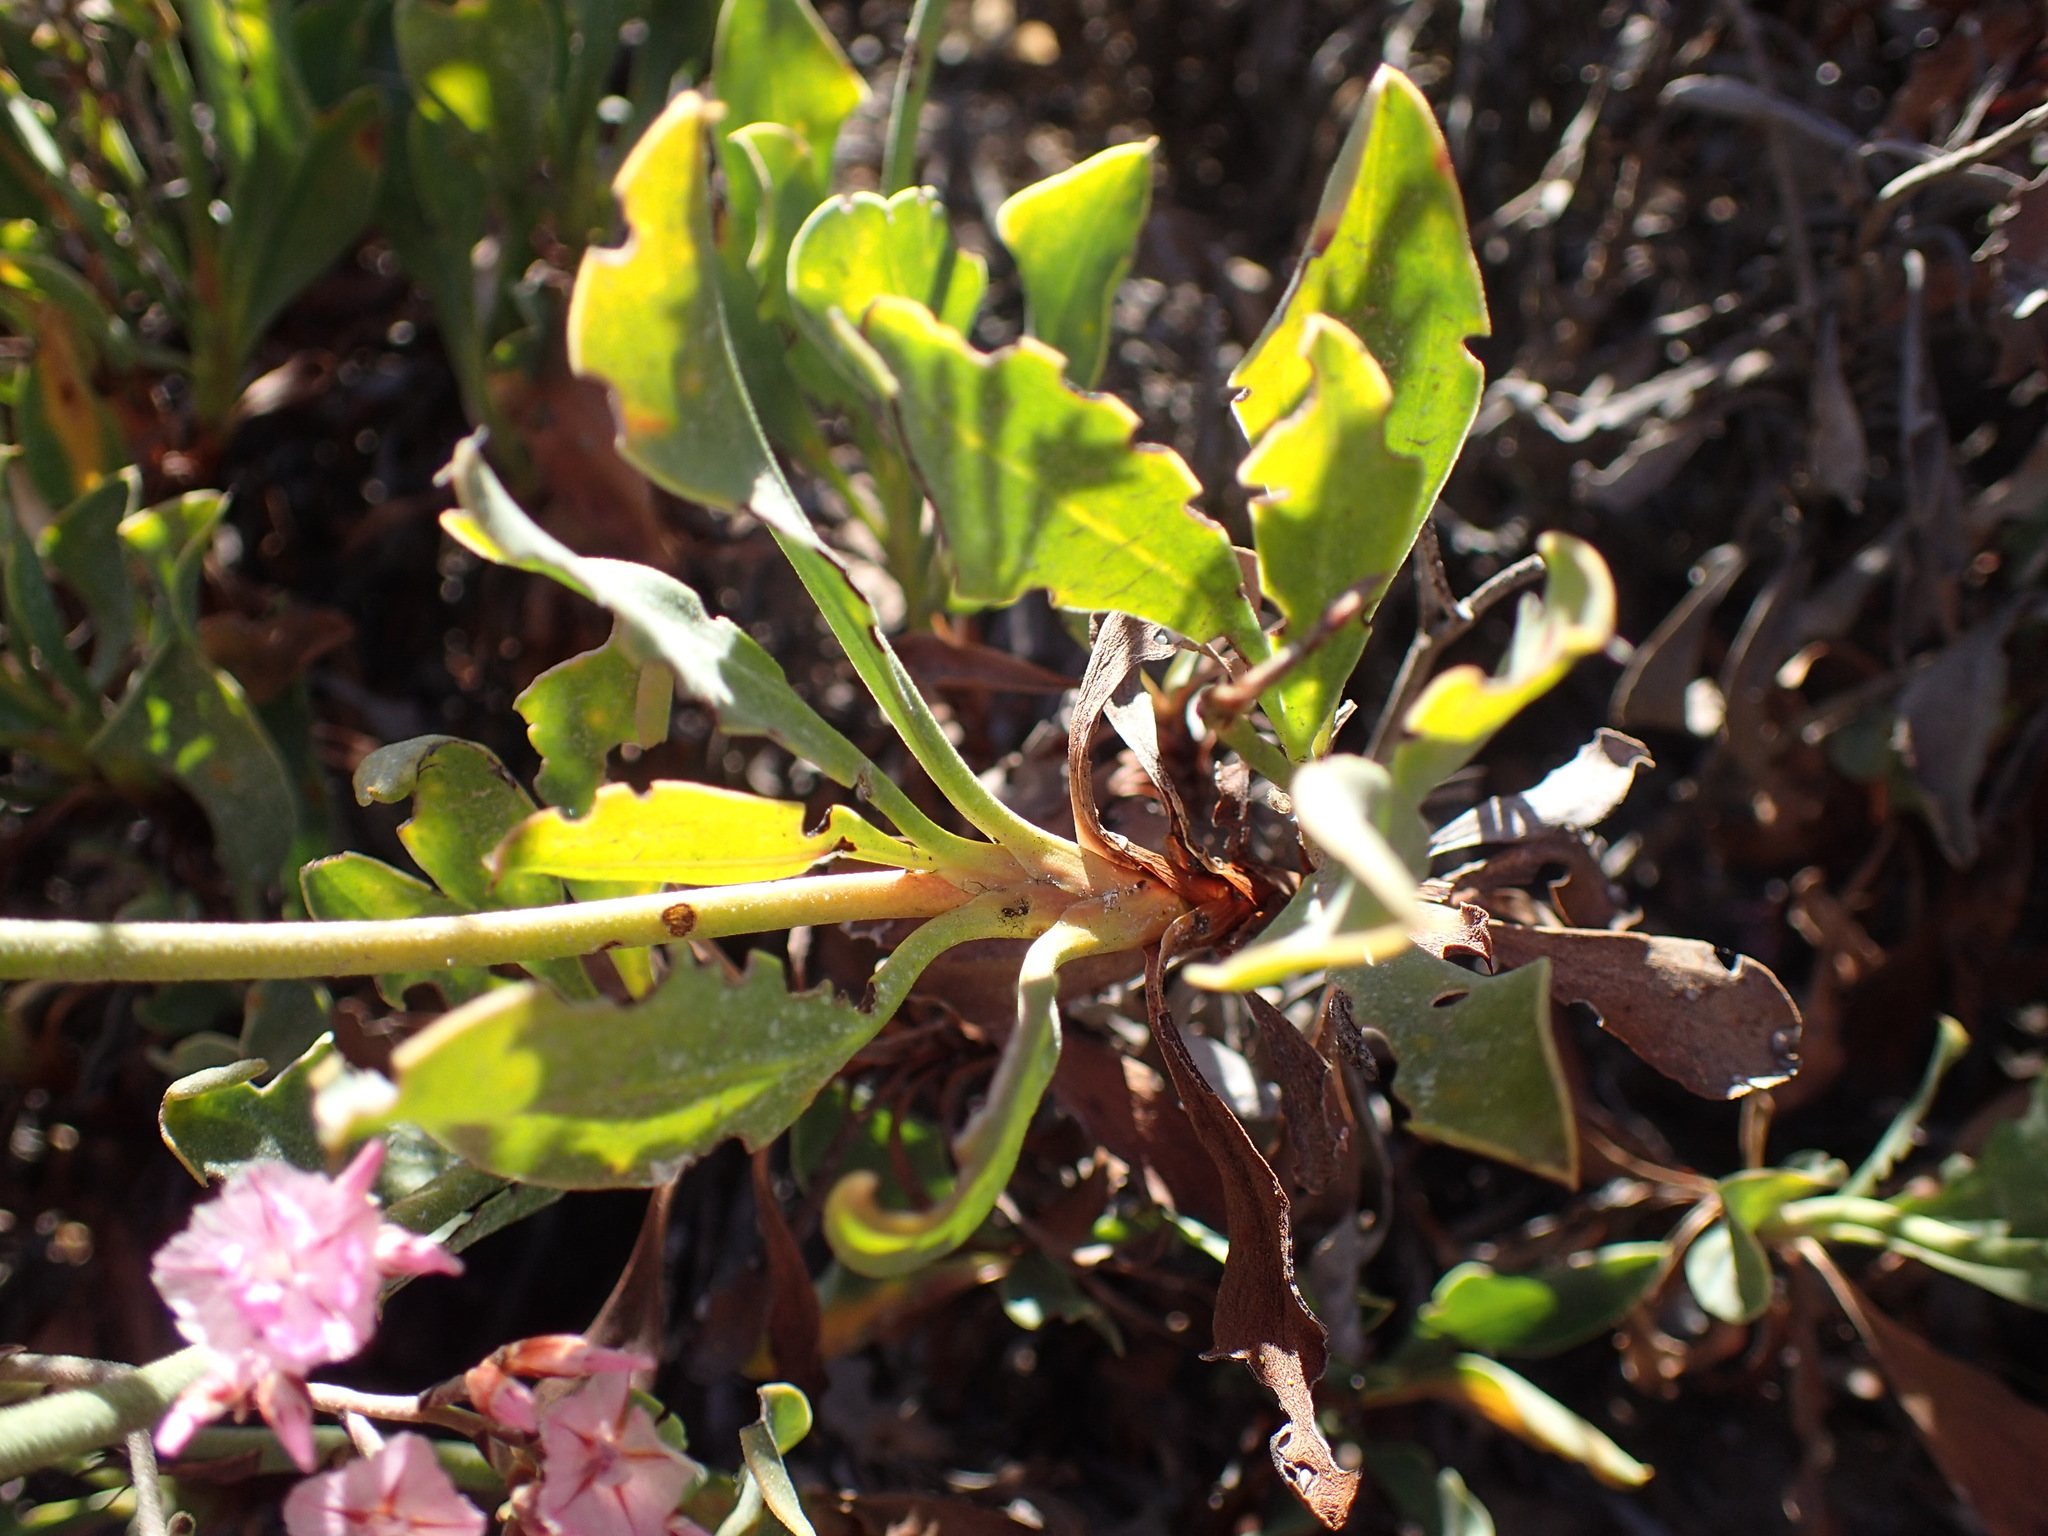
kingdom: Plantae
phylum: Tracheophyta
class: Magnoliopsida
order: Caryophyllales
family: Plumbaginaceae
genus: Limonium
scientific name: Limonium peregrinum
